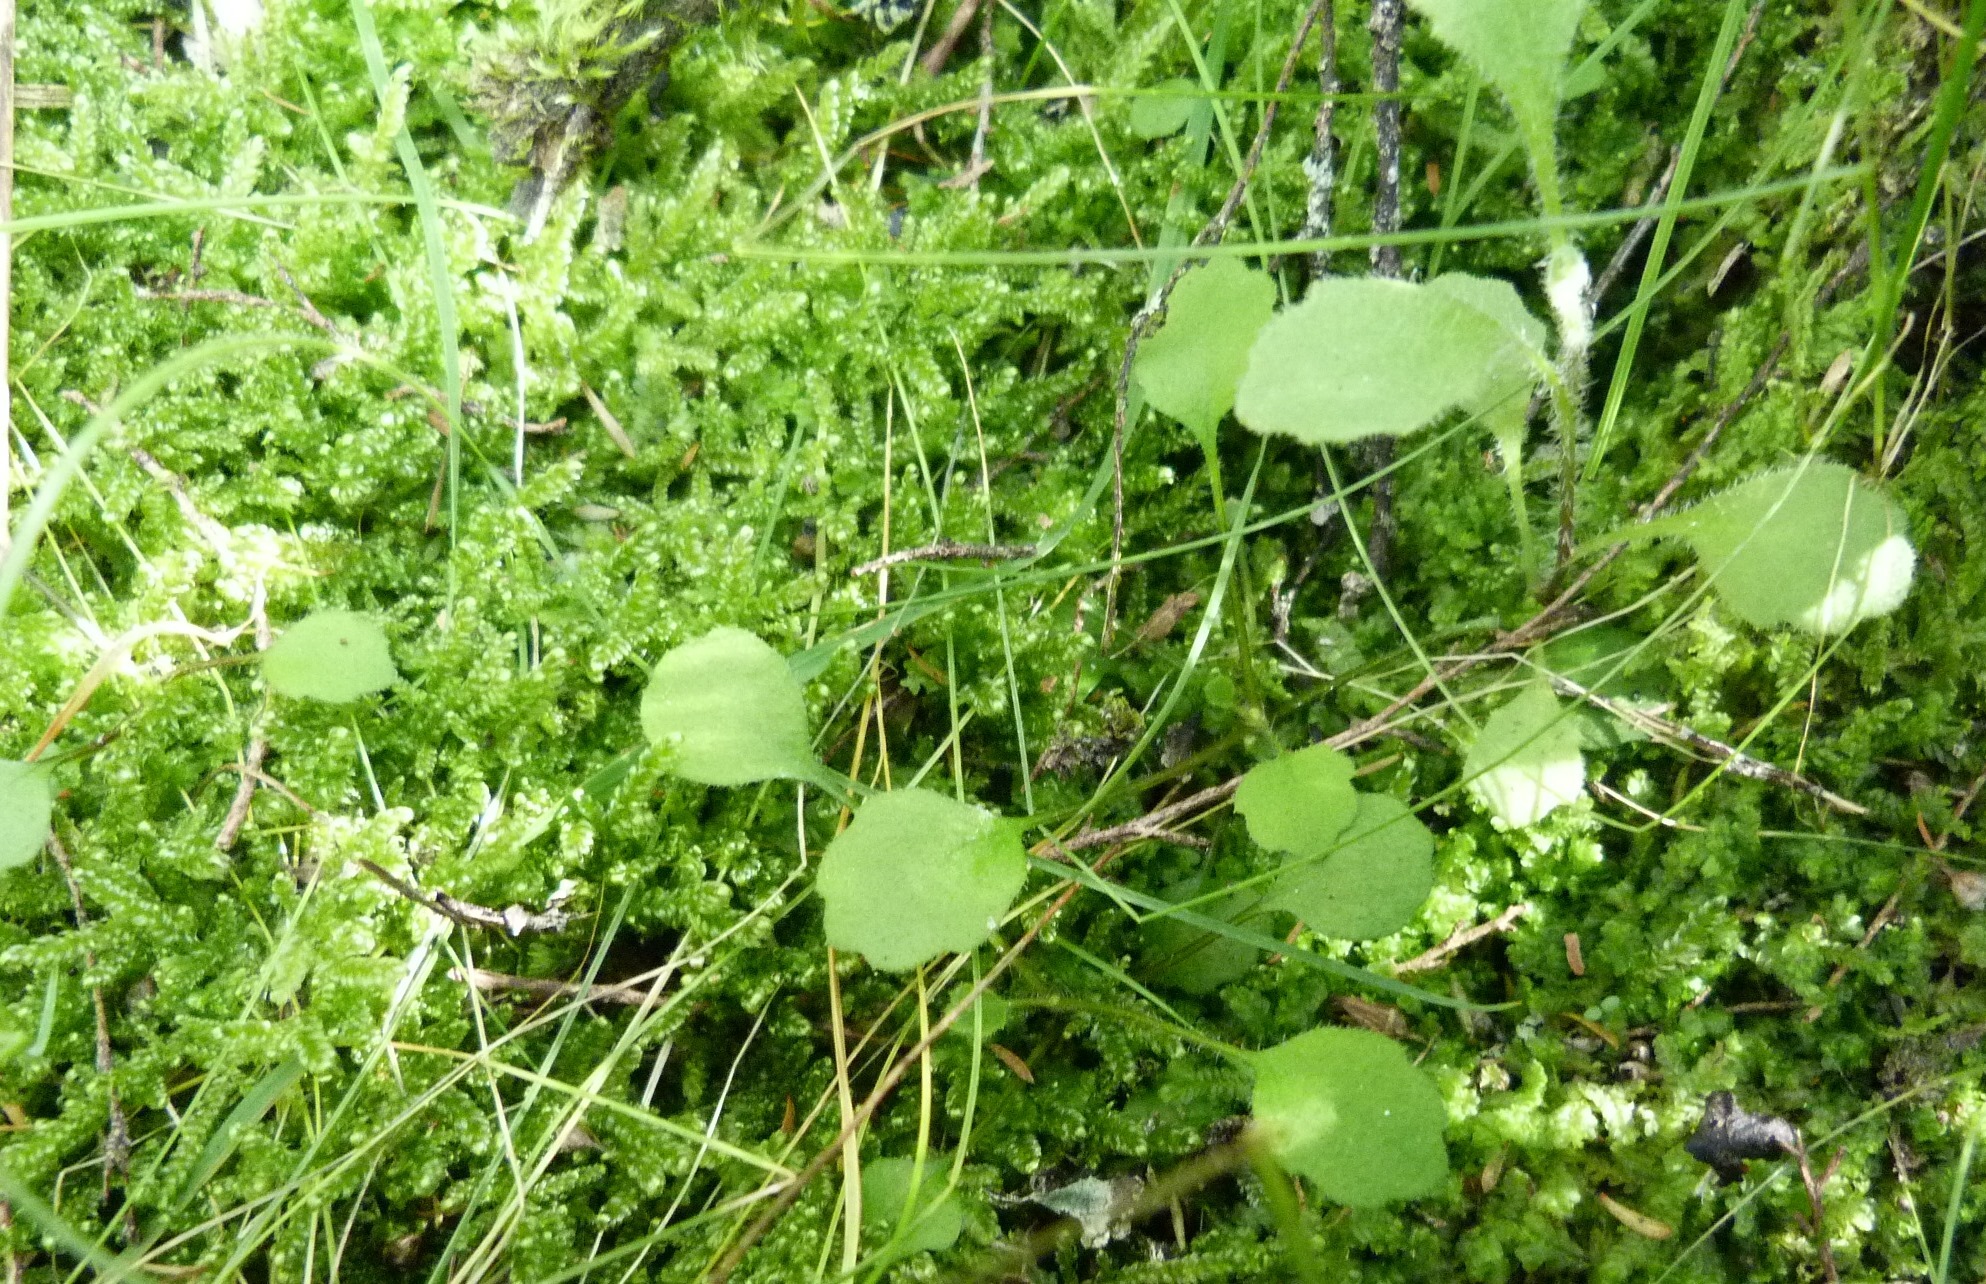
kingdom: Plantae
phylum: Tracheophyta
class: Magnoliopsida
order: Asterales
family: Asteraceae
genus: Lagenophora
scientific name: Lagenophora strangulata
